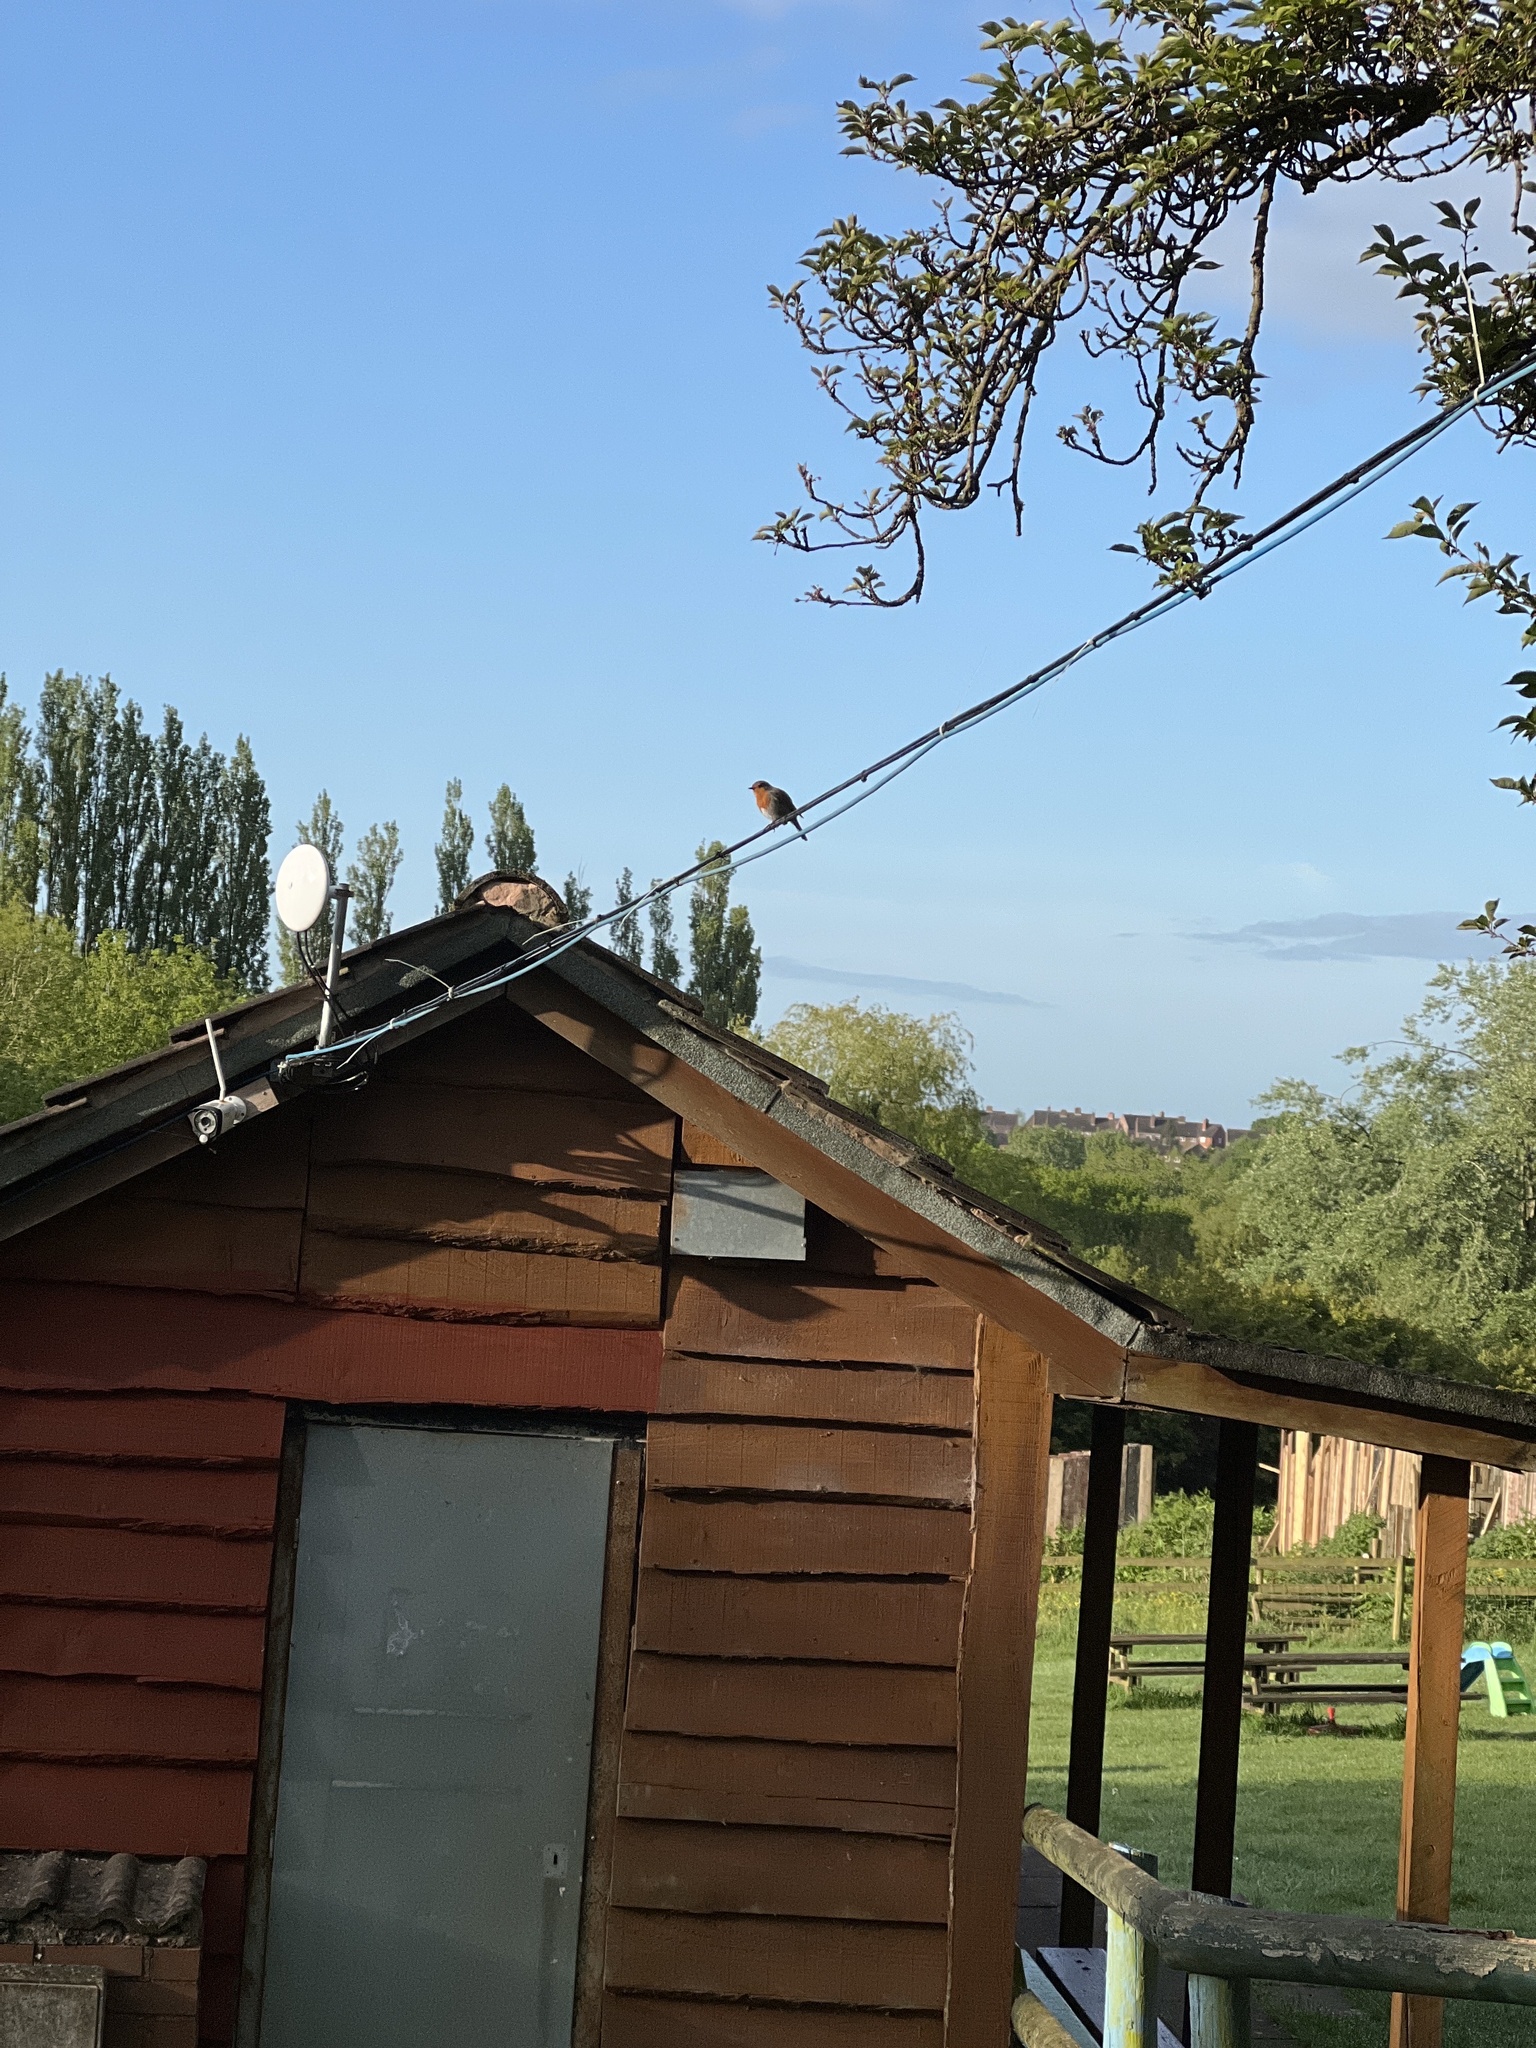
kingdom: Animalia
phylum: Chordata
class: Aves
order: Passeriformes
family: Muscicapidae
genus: Erithacus
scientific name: Erithacus rubecula
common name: European robin
